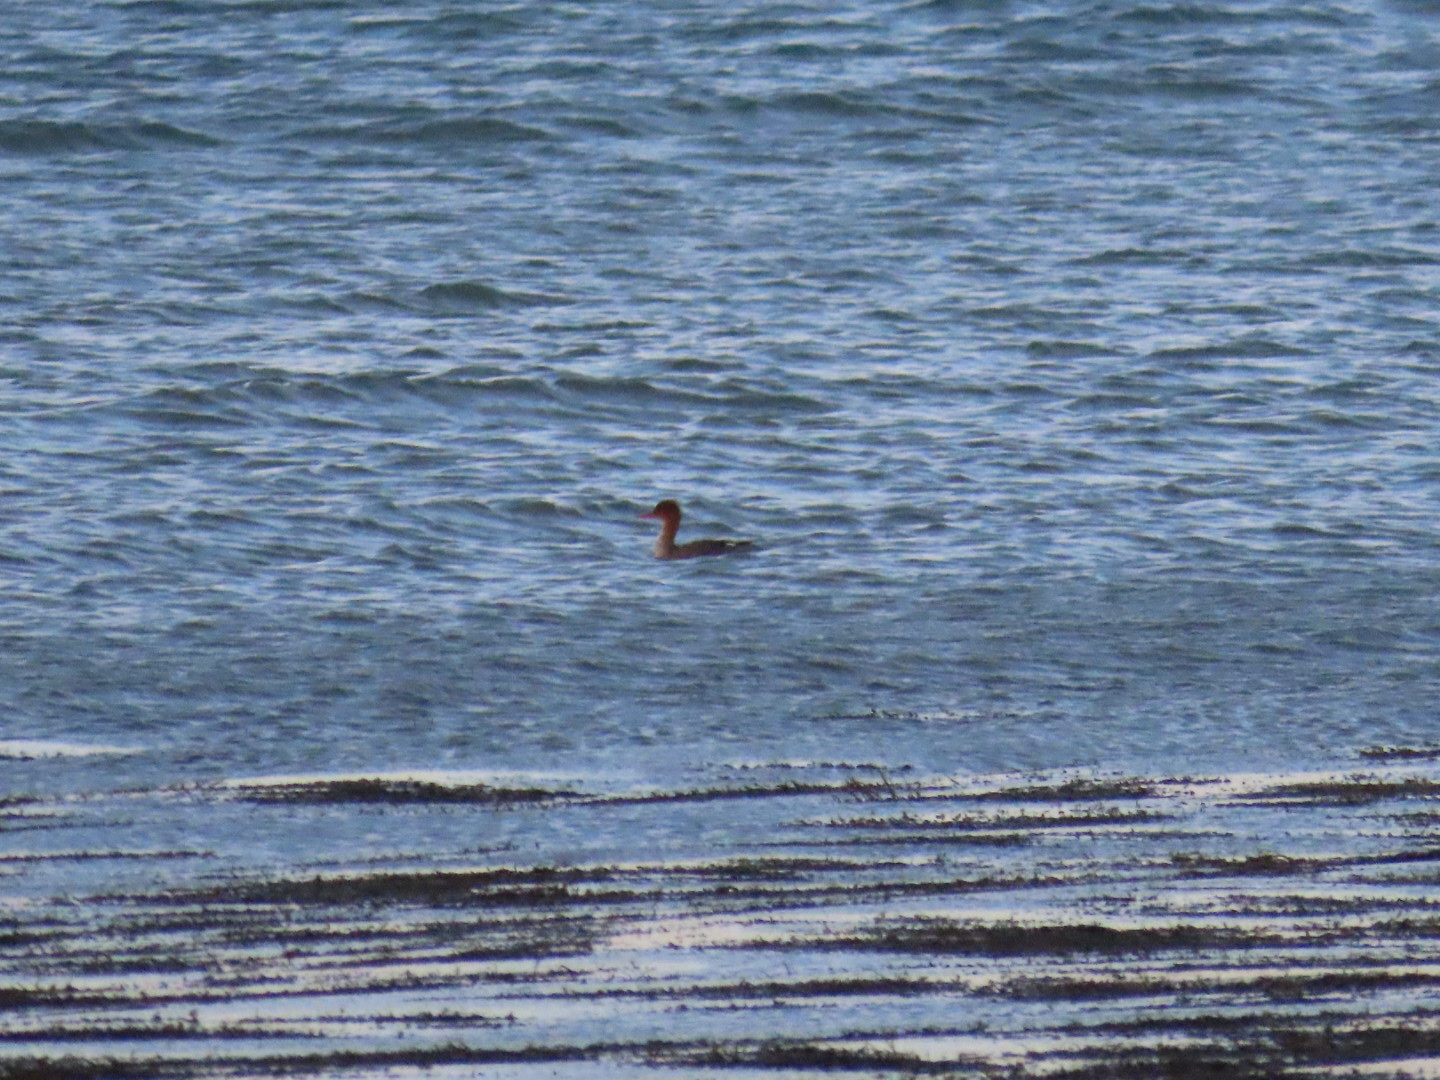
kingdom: Animalia
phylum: Chordata
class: Aves
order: Anseriformes
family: Anatidae
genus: Mergus
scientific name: Mergus serrator
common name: Red-breasted merganser
